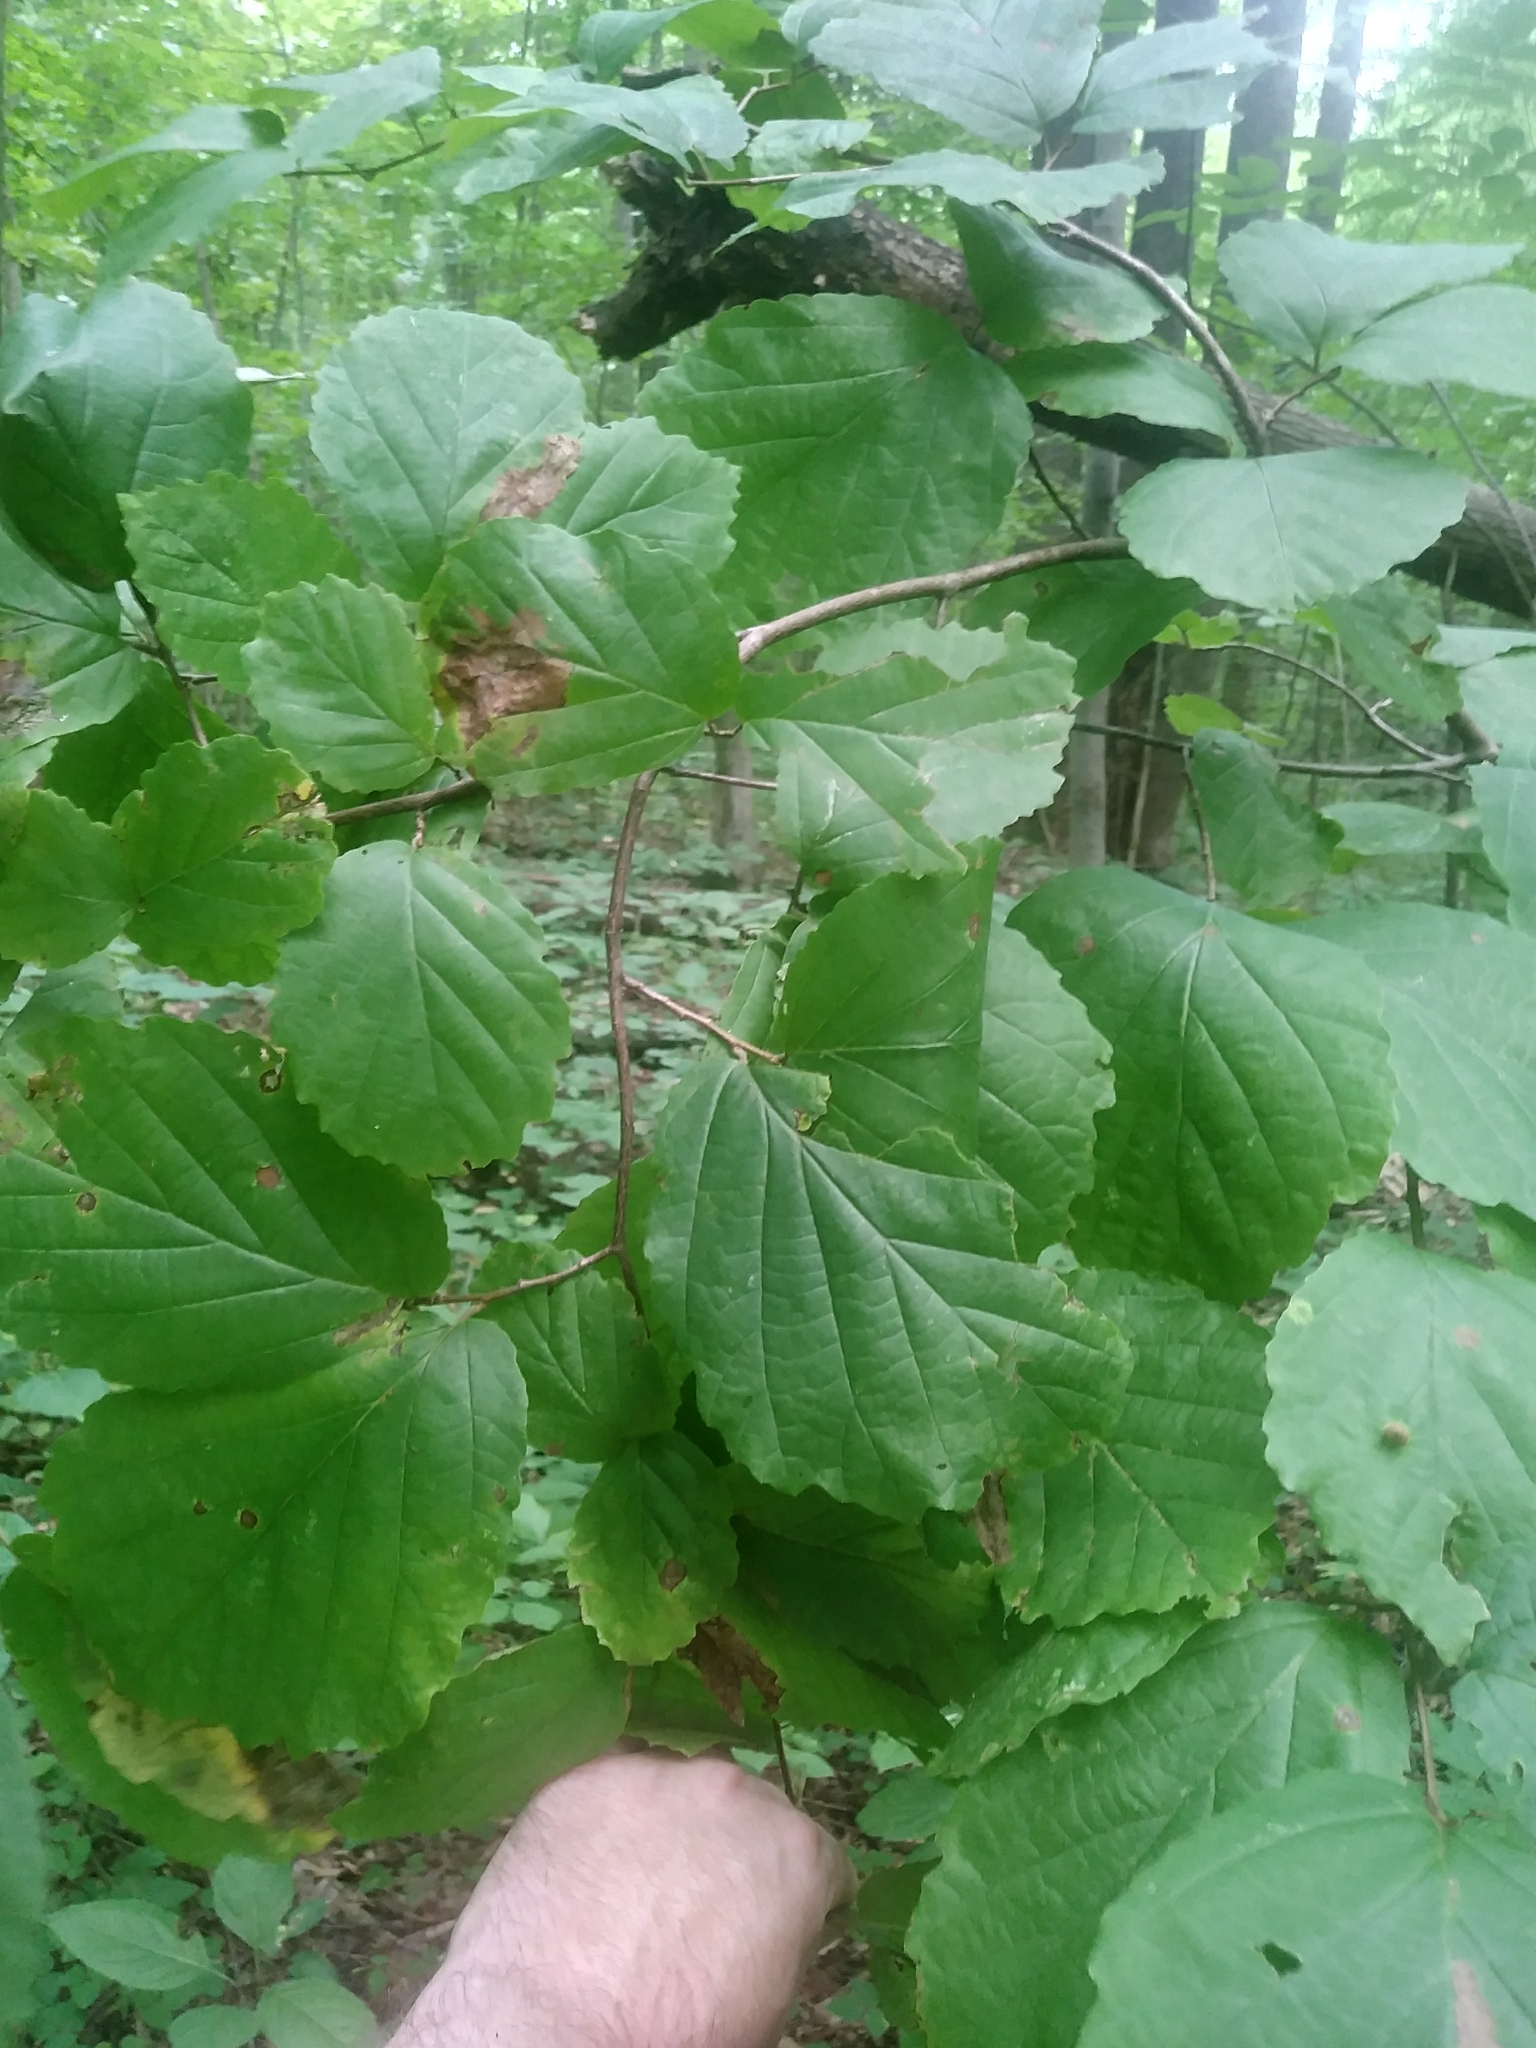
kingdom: Plantae
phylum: Tracheophyta
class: Magnoliopsida
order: Saxifragales
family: Hamamelidaceae
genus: Hamamelis
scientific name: Hamamelis virginiana
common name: Witch-hazel
